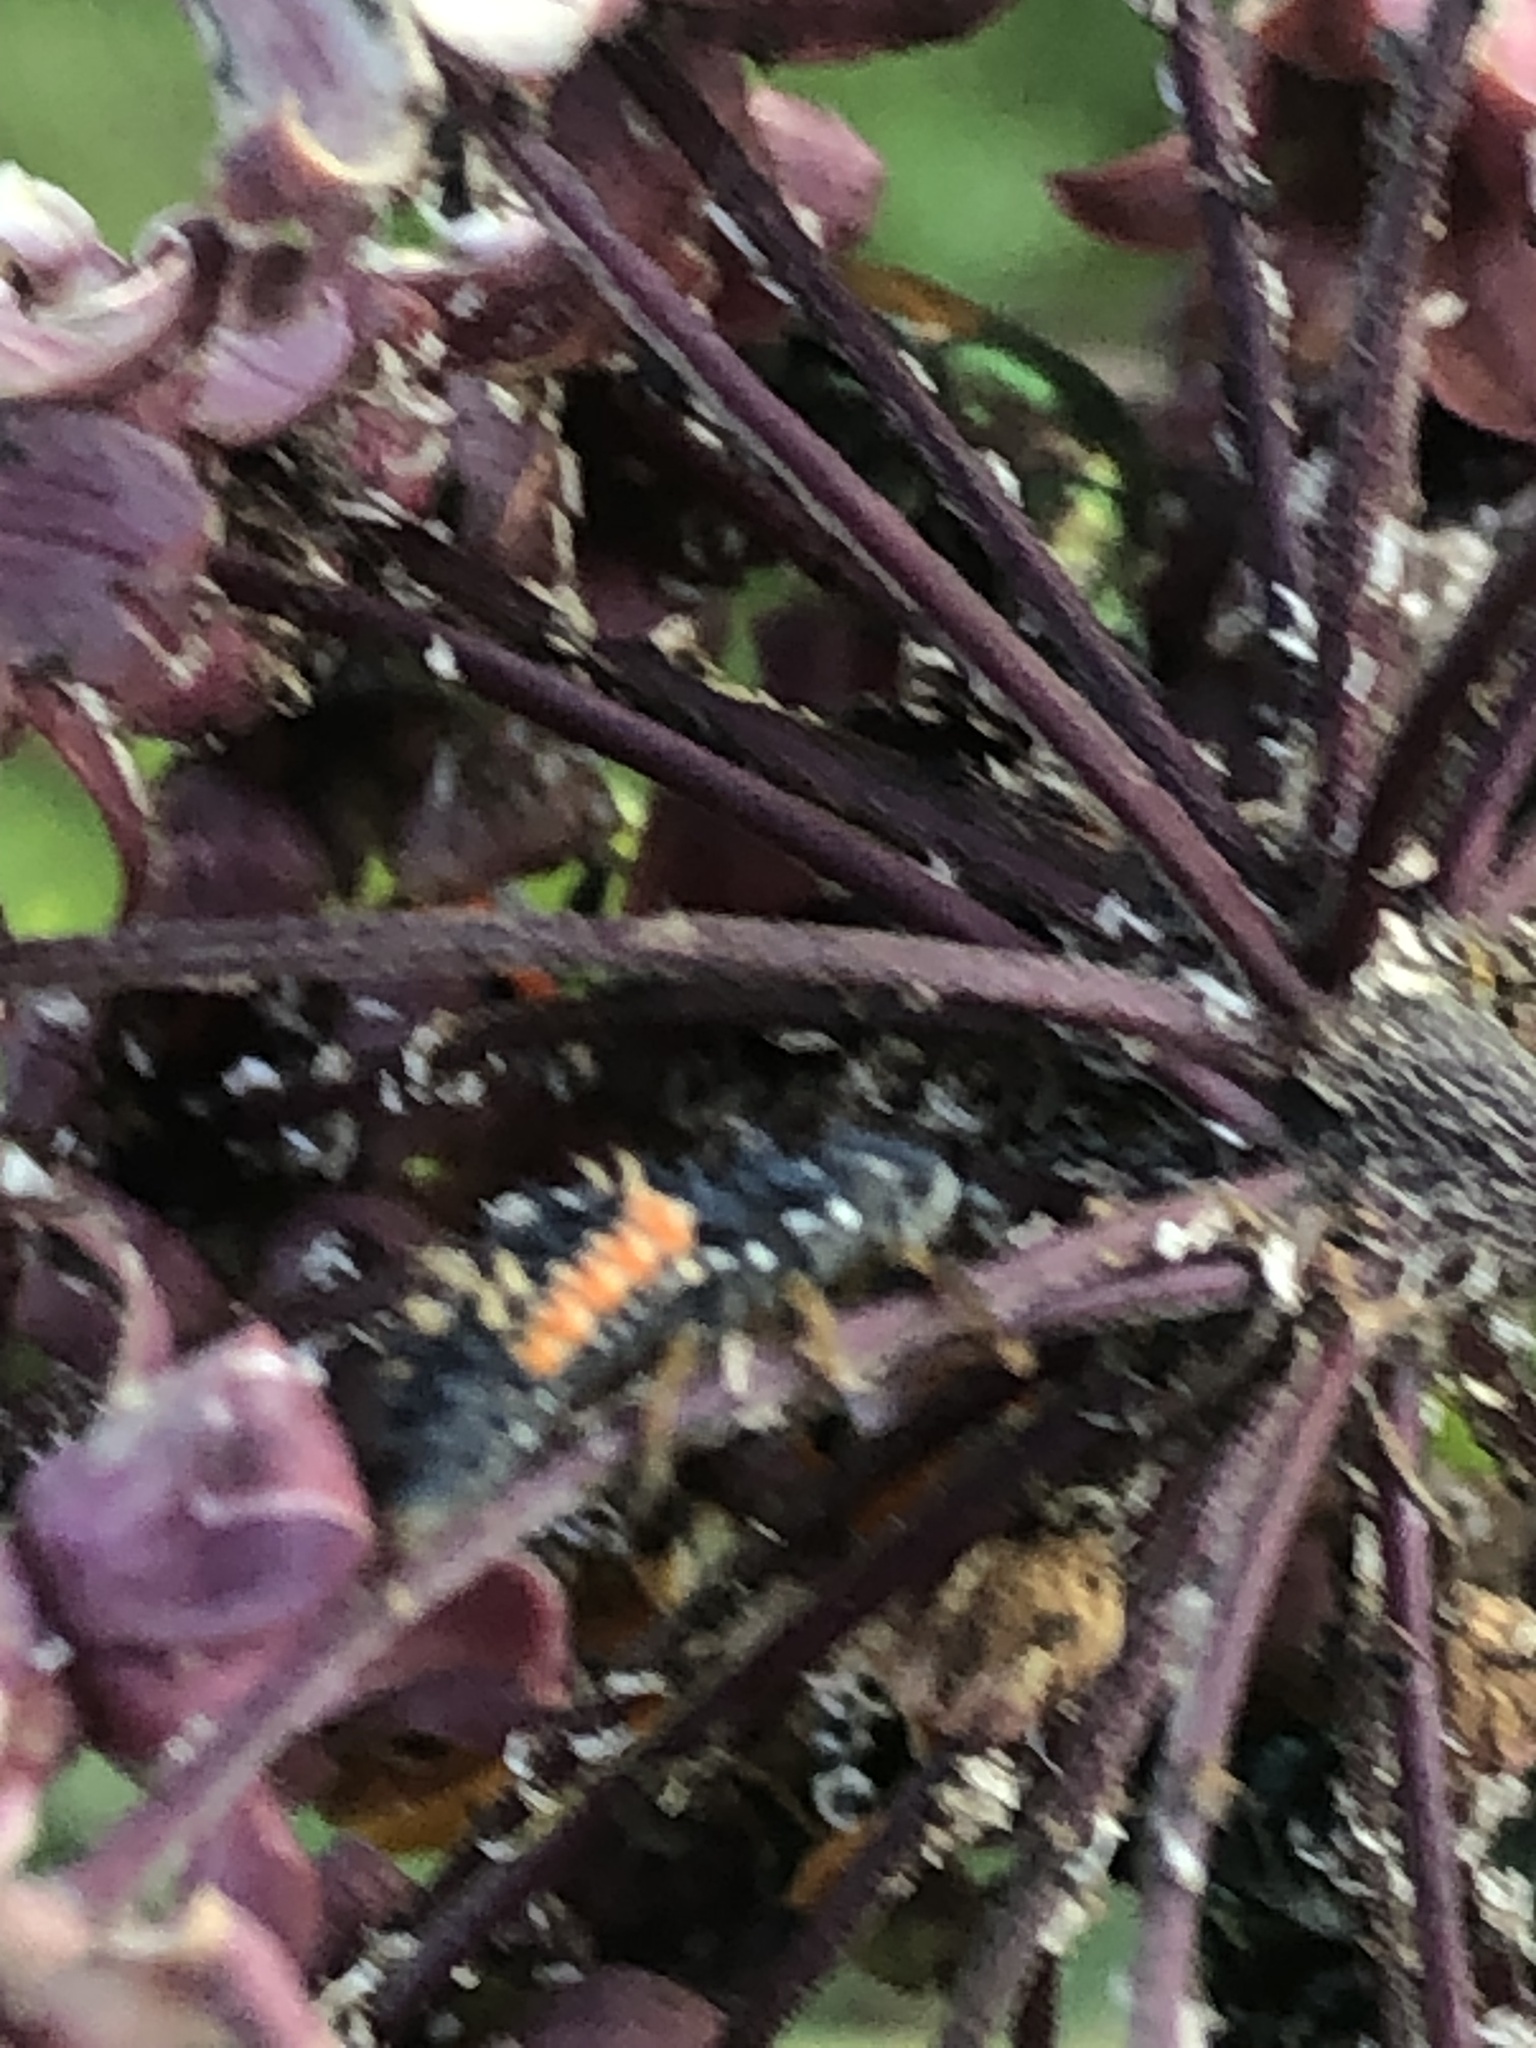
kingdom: Animalia
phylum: Arthropoda
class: Insecta
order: Coleoptera
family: Coccinellidae
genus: Harmonia
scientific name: Harmonia axyridis
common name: Harlequin ladybird
